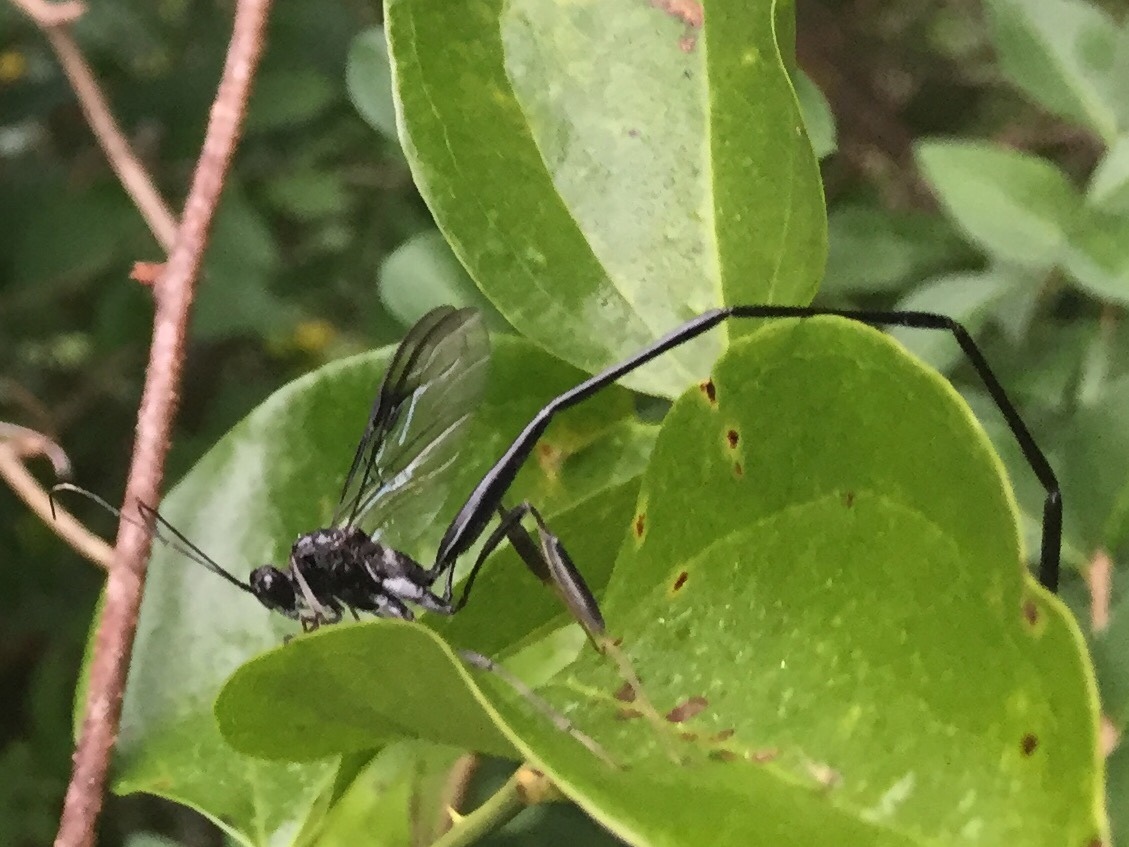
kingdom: Animalia
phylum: Arthropoda
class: Insecta
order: Hymenoptera
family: Pelecinidae
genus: Pelecinus
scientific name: Pelecinus polyturator
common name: American pelecinid wasp
